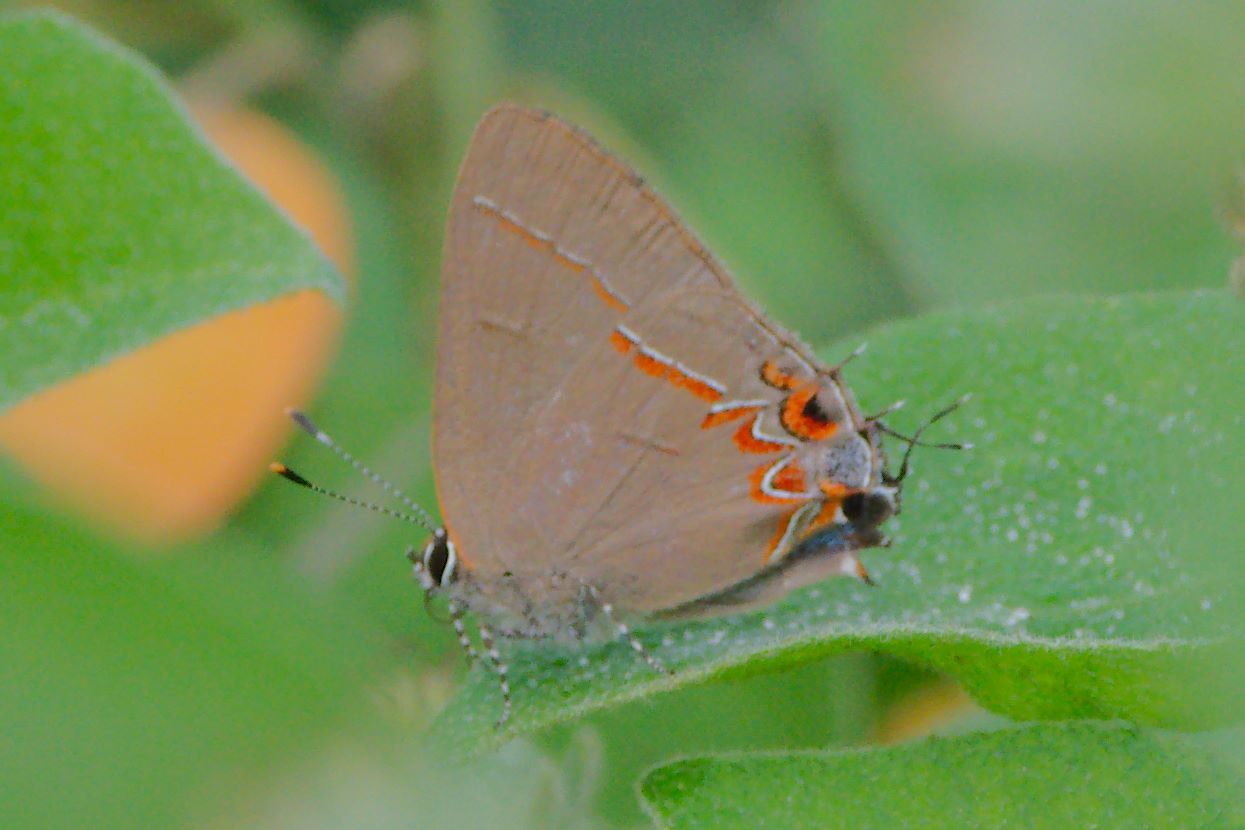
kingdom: Animalia
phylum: Arthropoda
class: Insecta
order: Lepidoptera
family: Lycaenidae
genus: Calycopis
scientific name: Calycopis isobeon
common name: Dusky-blue groundstreak
